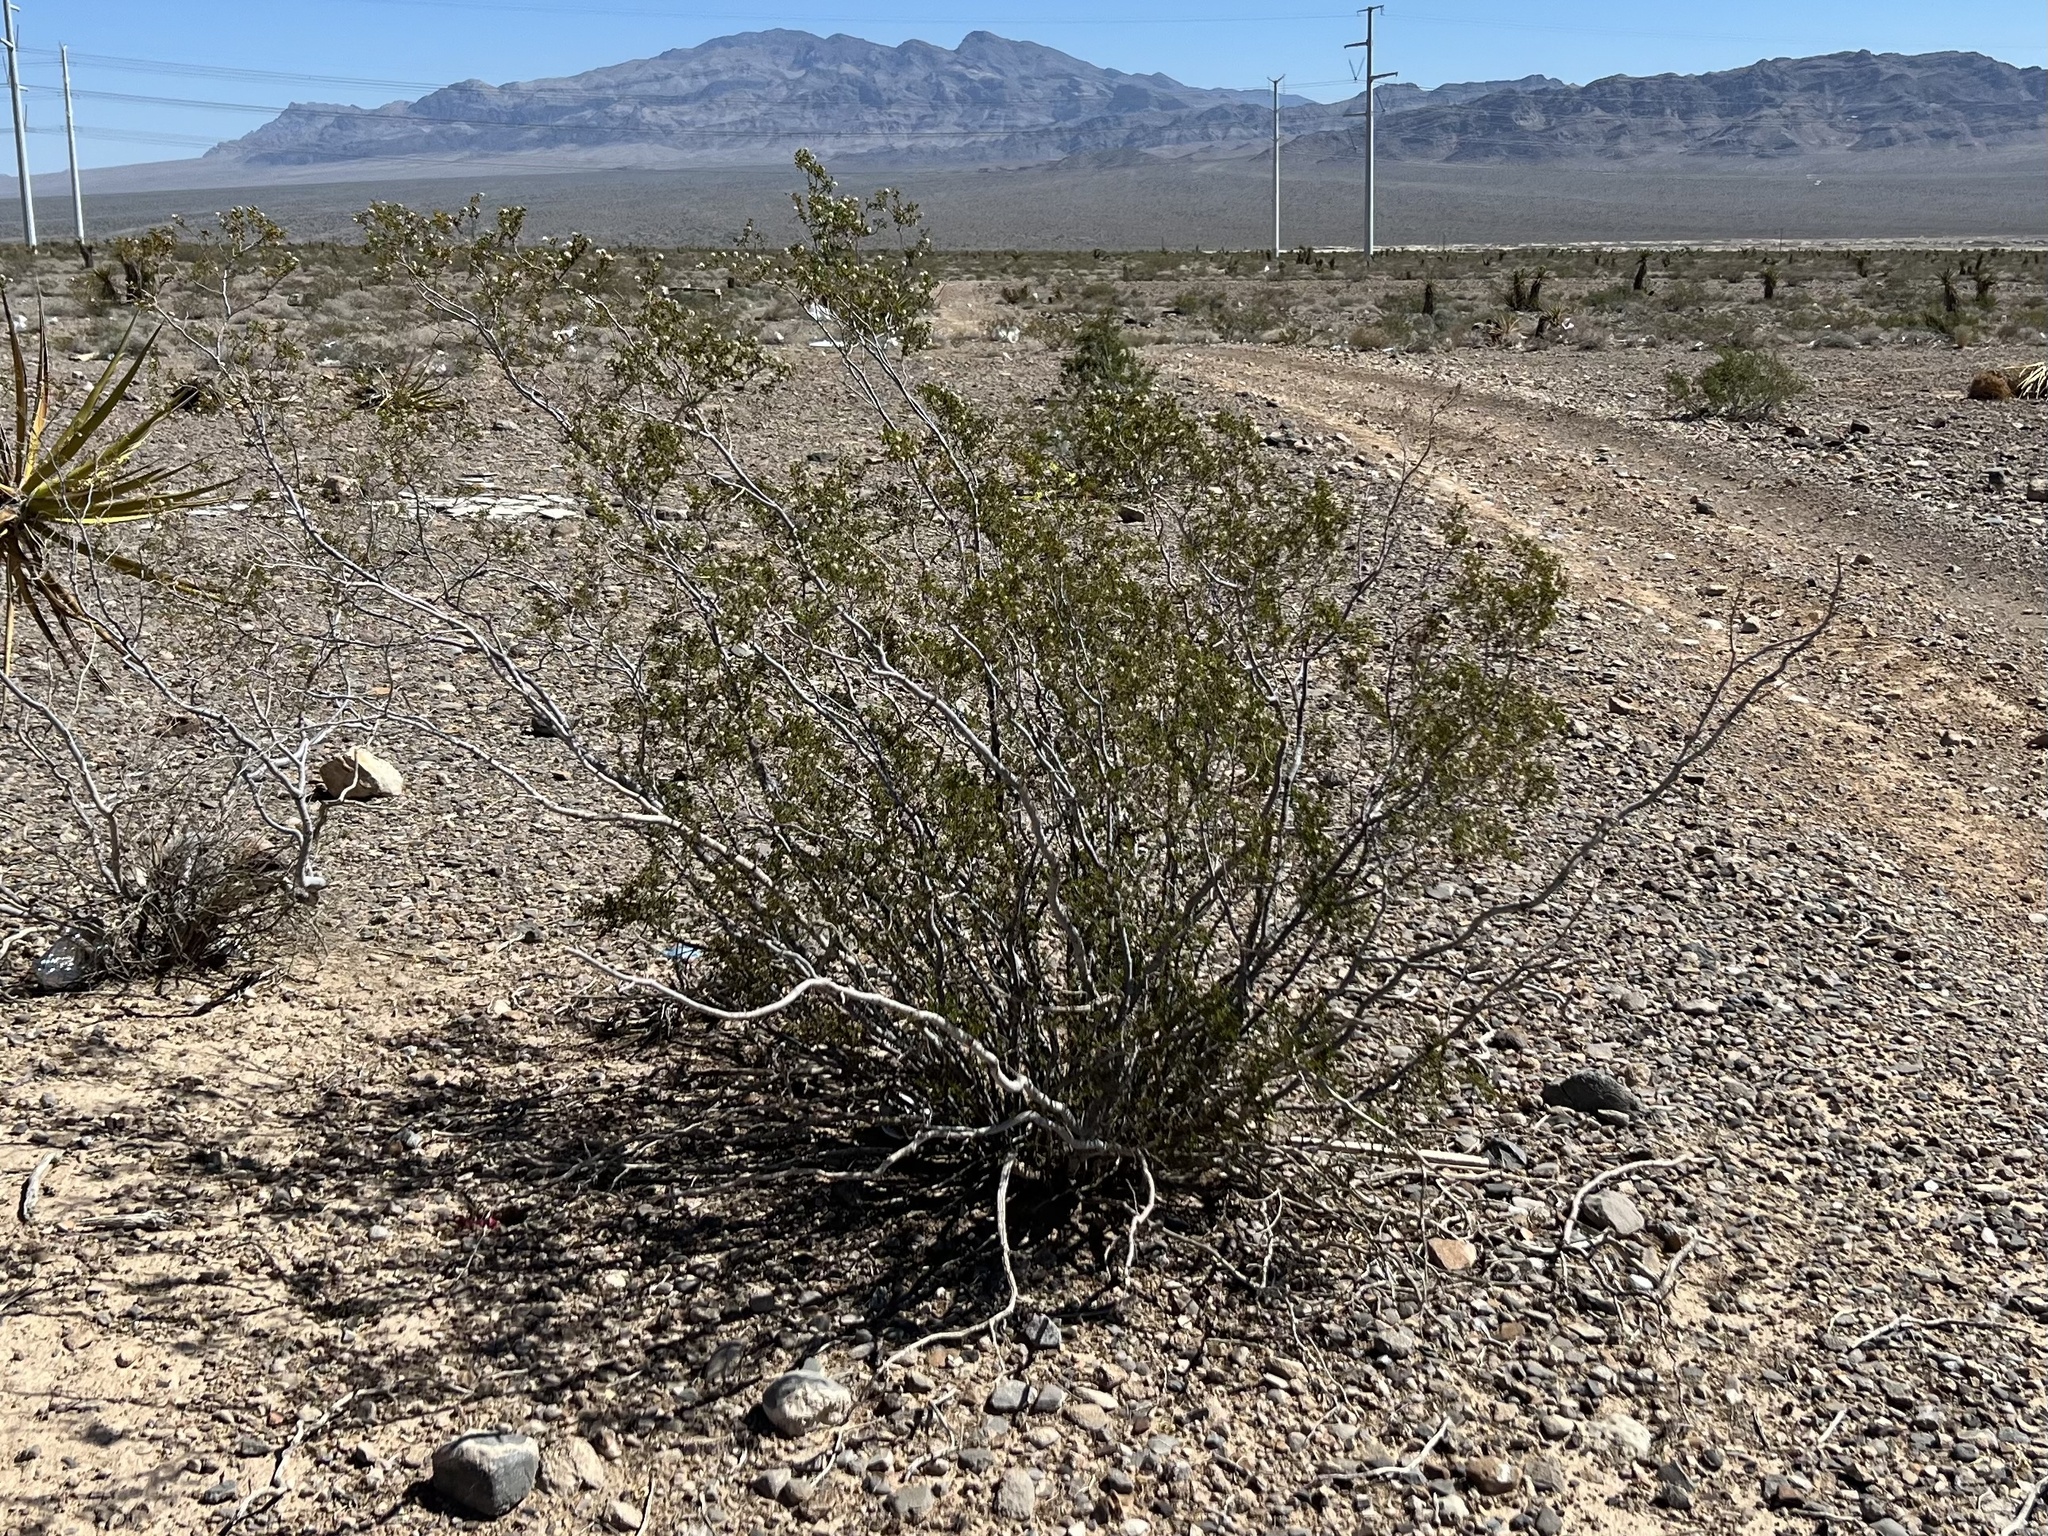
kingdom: Plantae
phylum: Tracheophyta
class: Magnoliopsida
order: Zygophyllales
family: Zygophyllaceae
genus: Larrea
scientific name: Larrea tridentata
